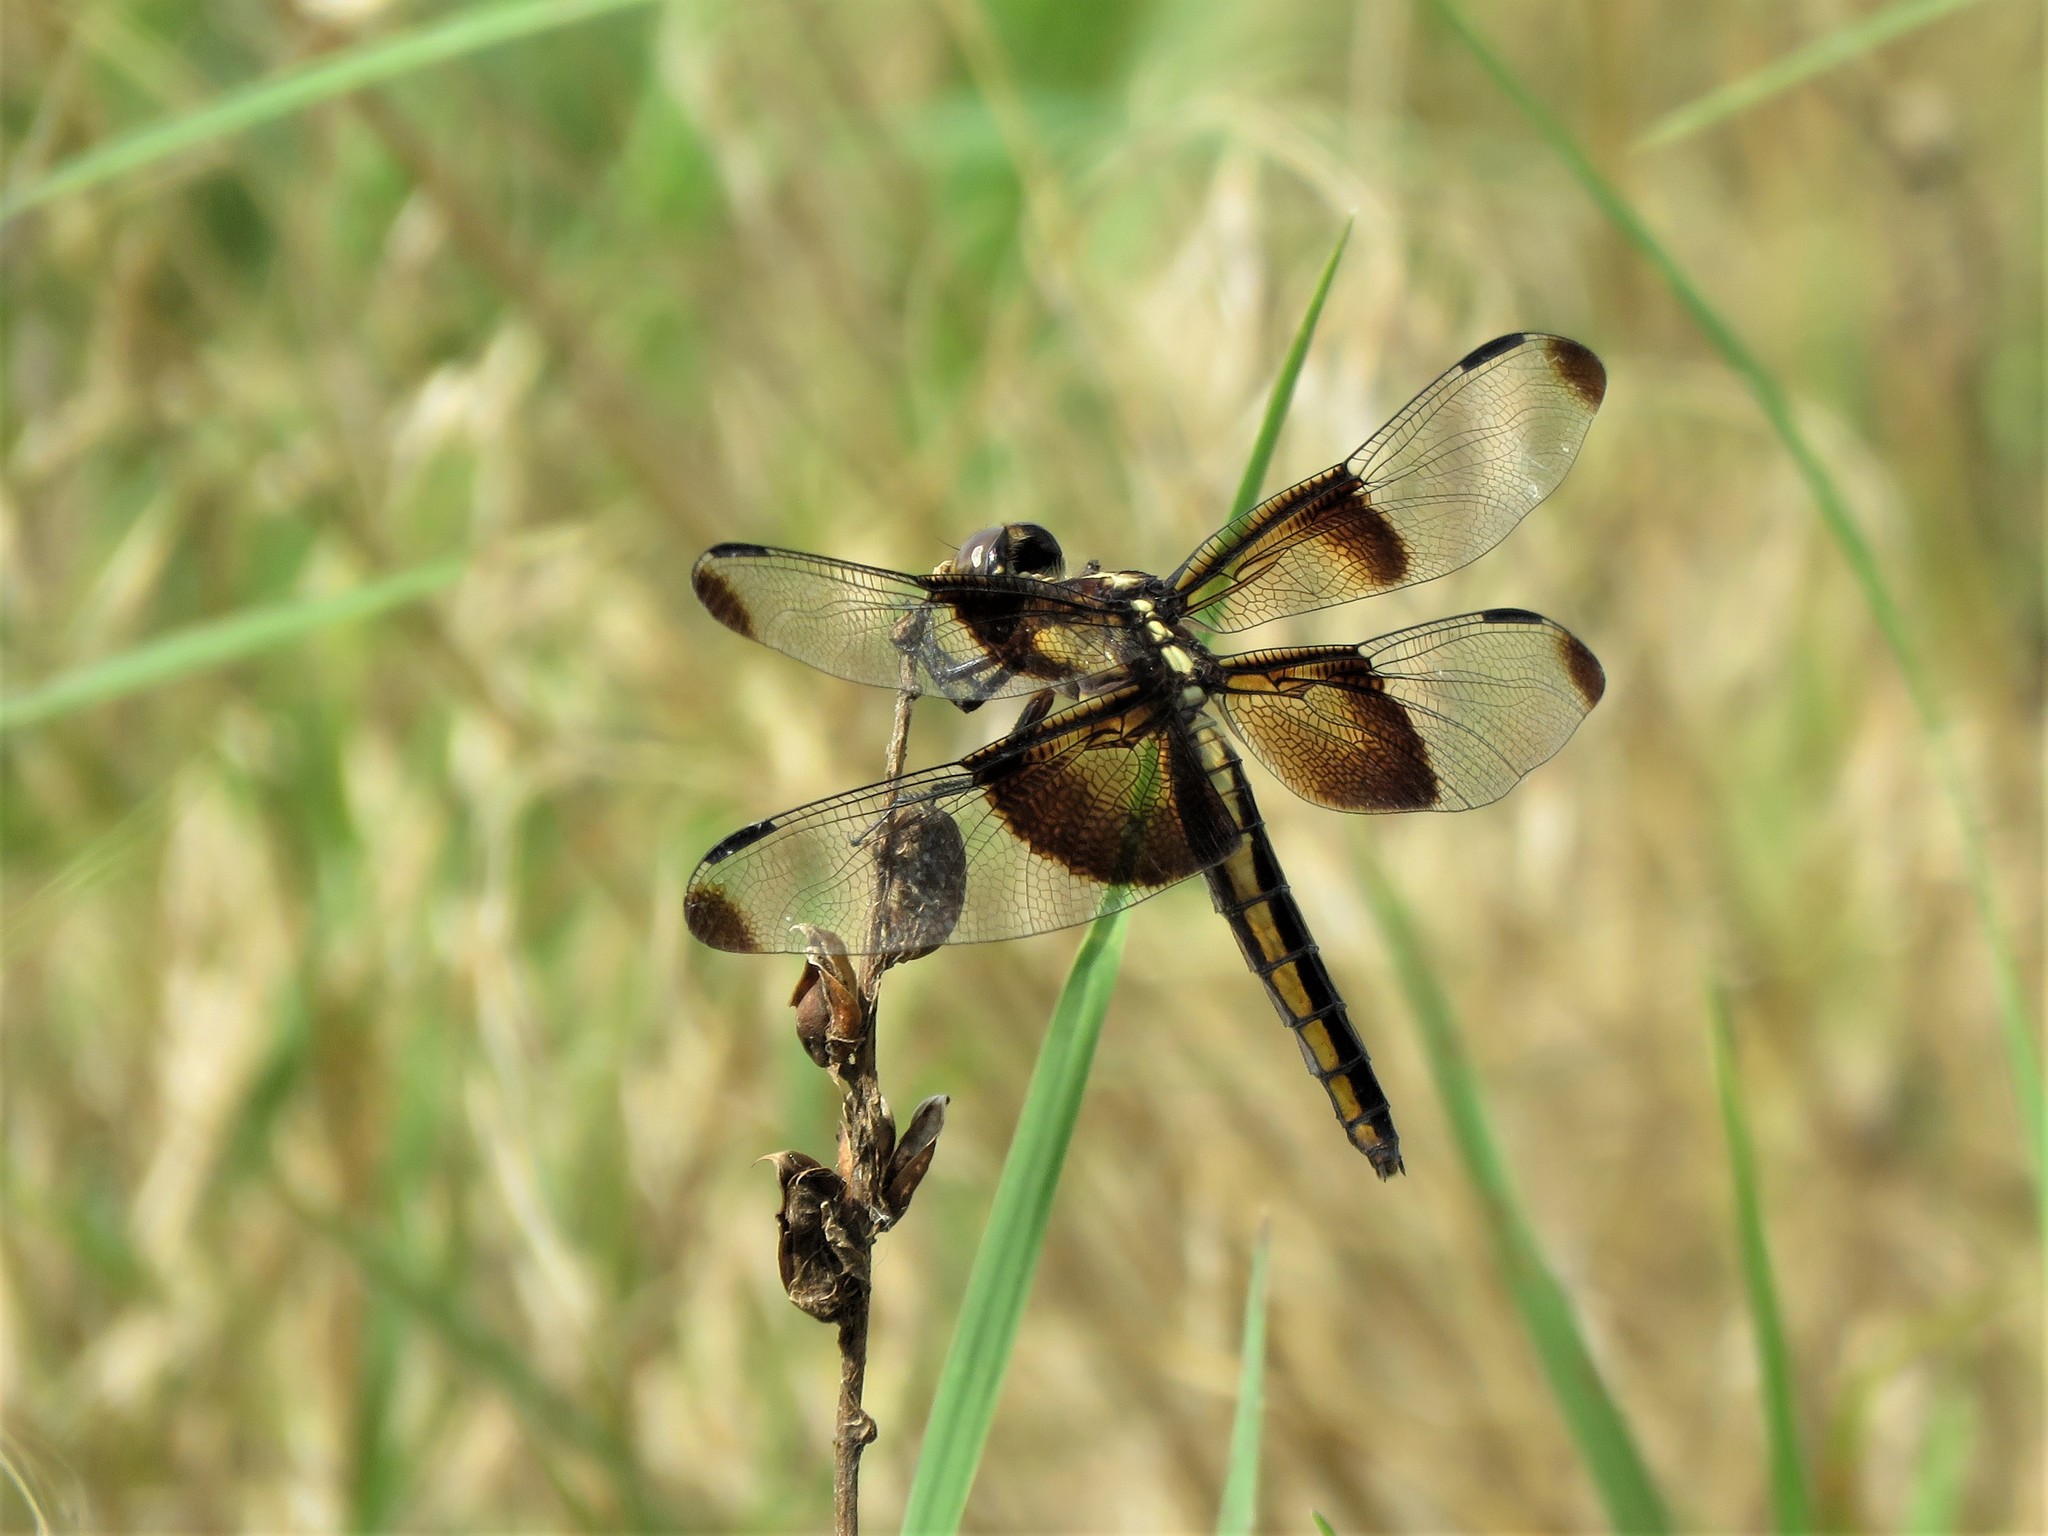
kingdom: Animalia
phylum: Arthropoda
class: Insecta
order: Odonata
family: Libellulidae
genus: Libellula
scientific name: Libellula luctuosa
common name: Widow skimmer
